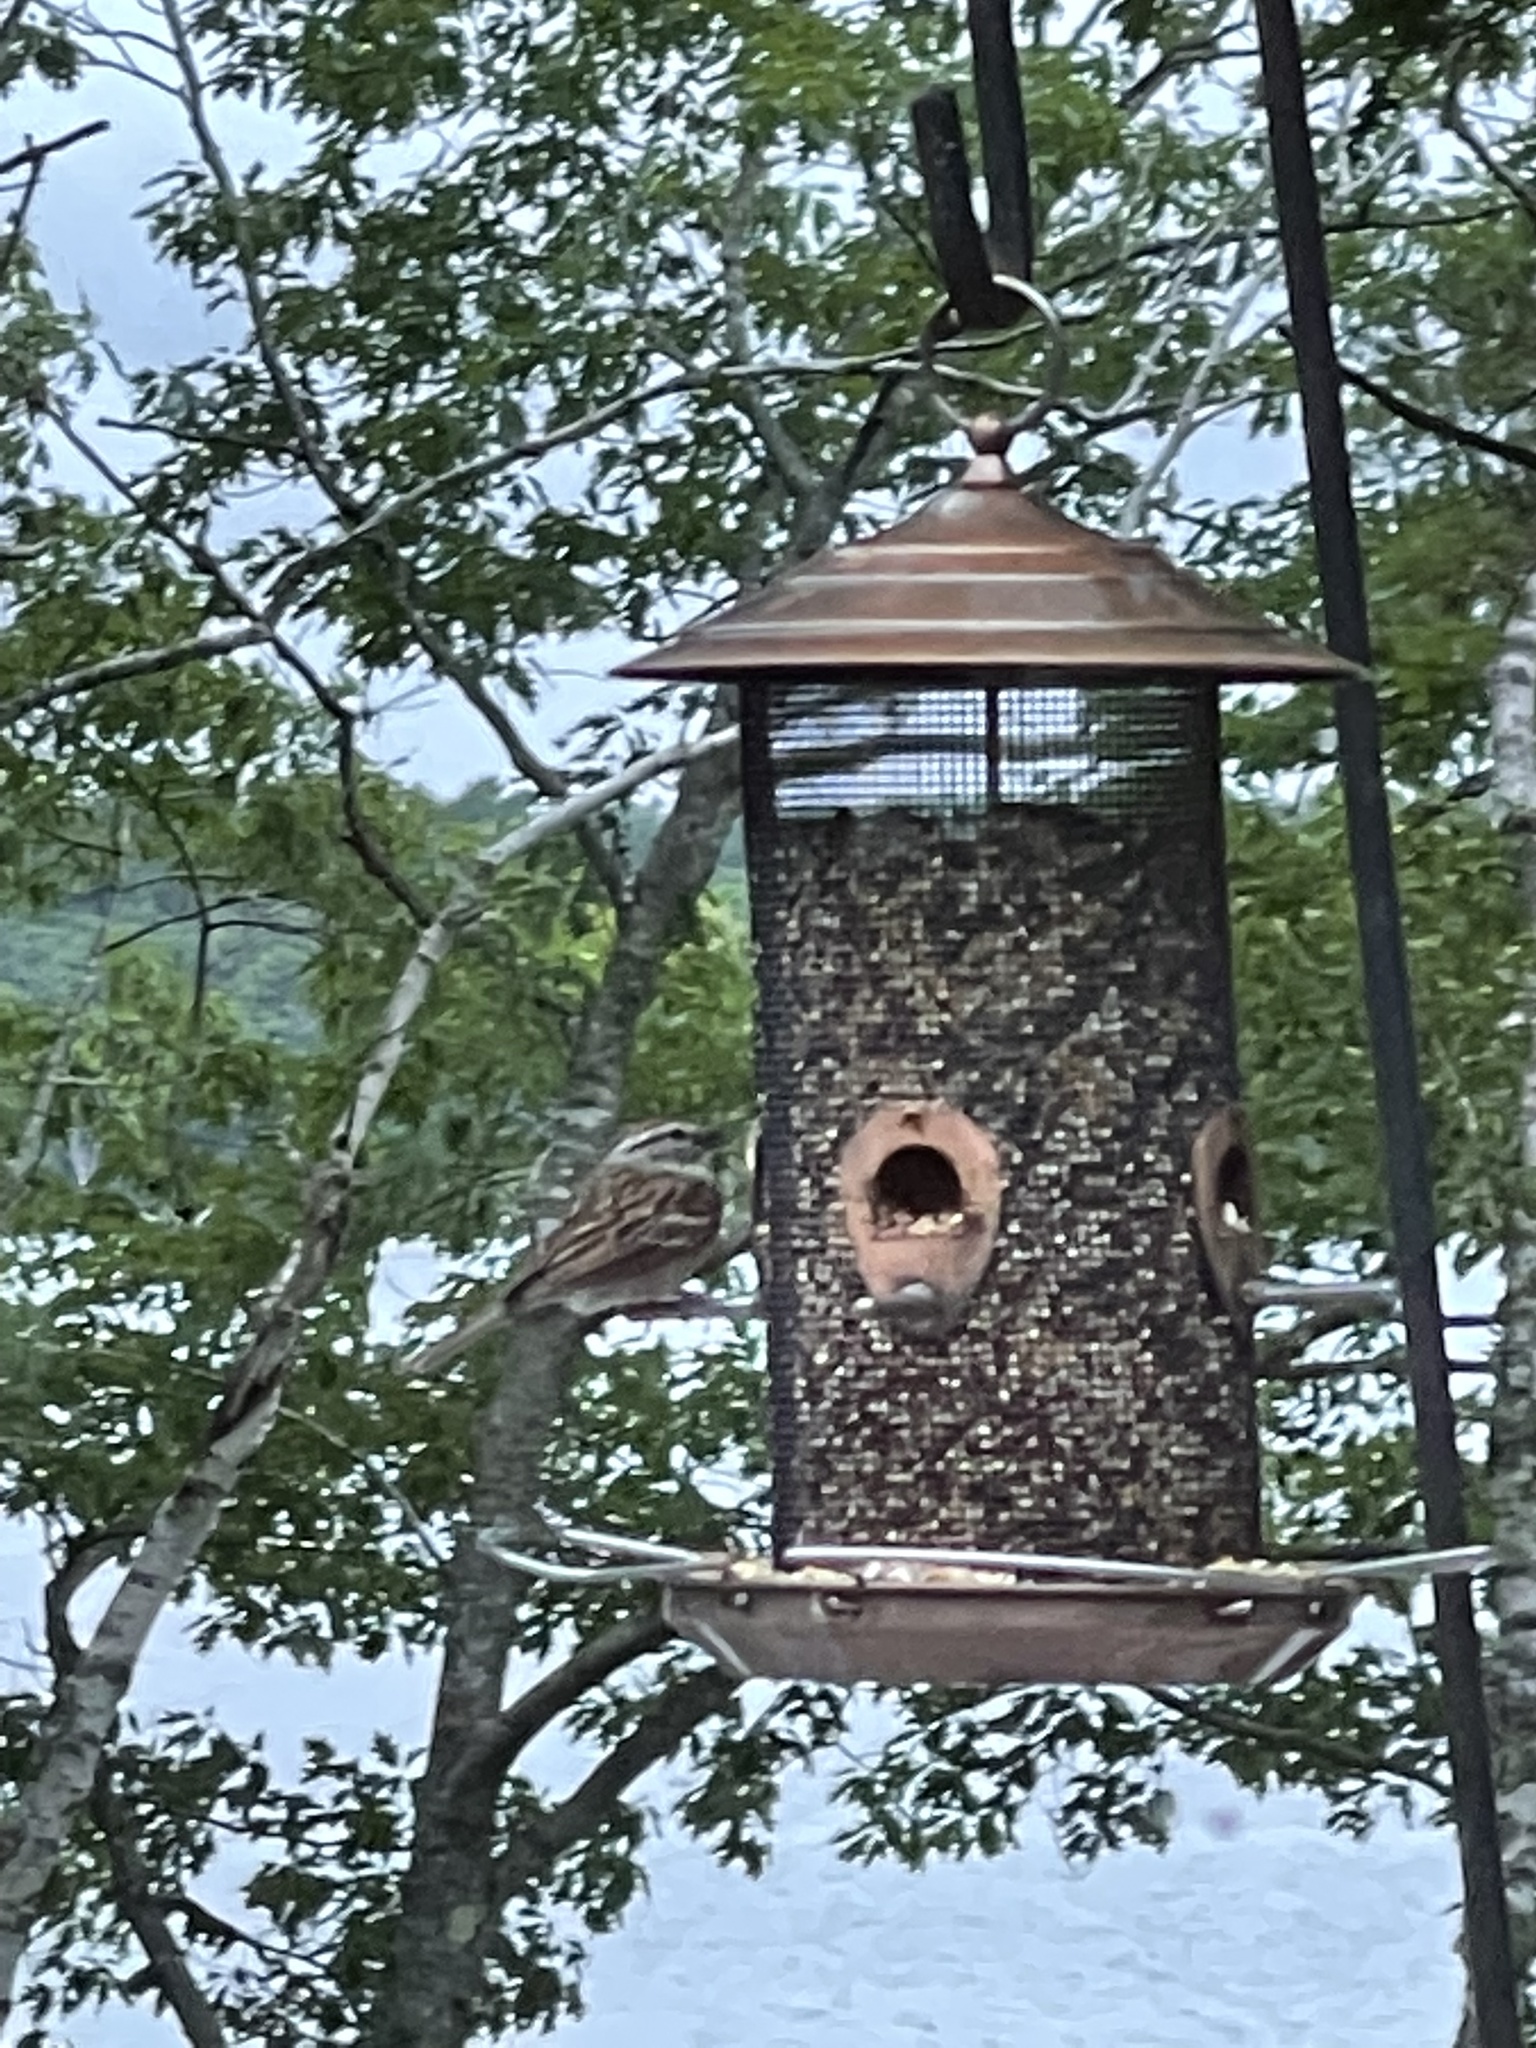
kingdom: Animalia
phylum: Chordata
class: Aves
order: Passeriformes
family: Passerellidae
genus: Spizella
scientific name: Spizella passerina
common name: Chipping sparrow
